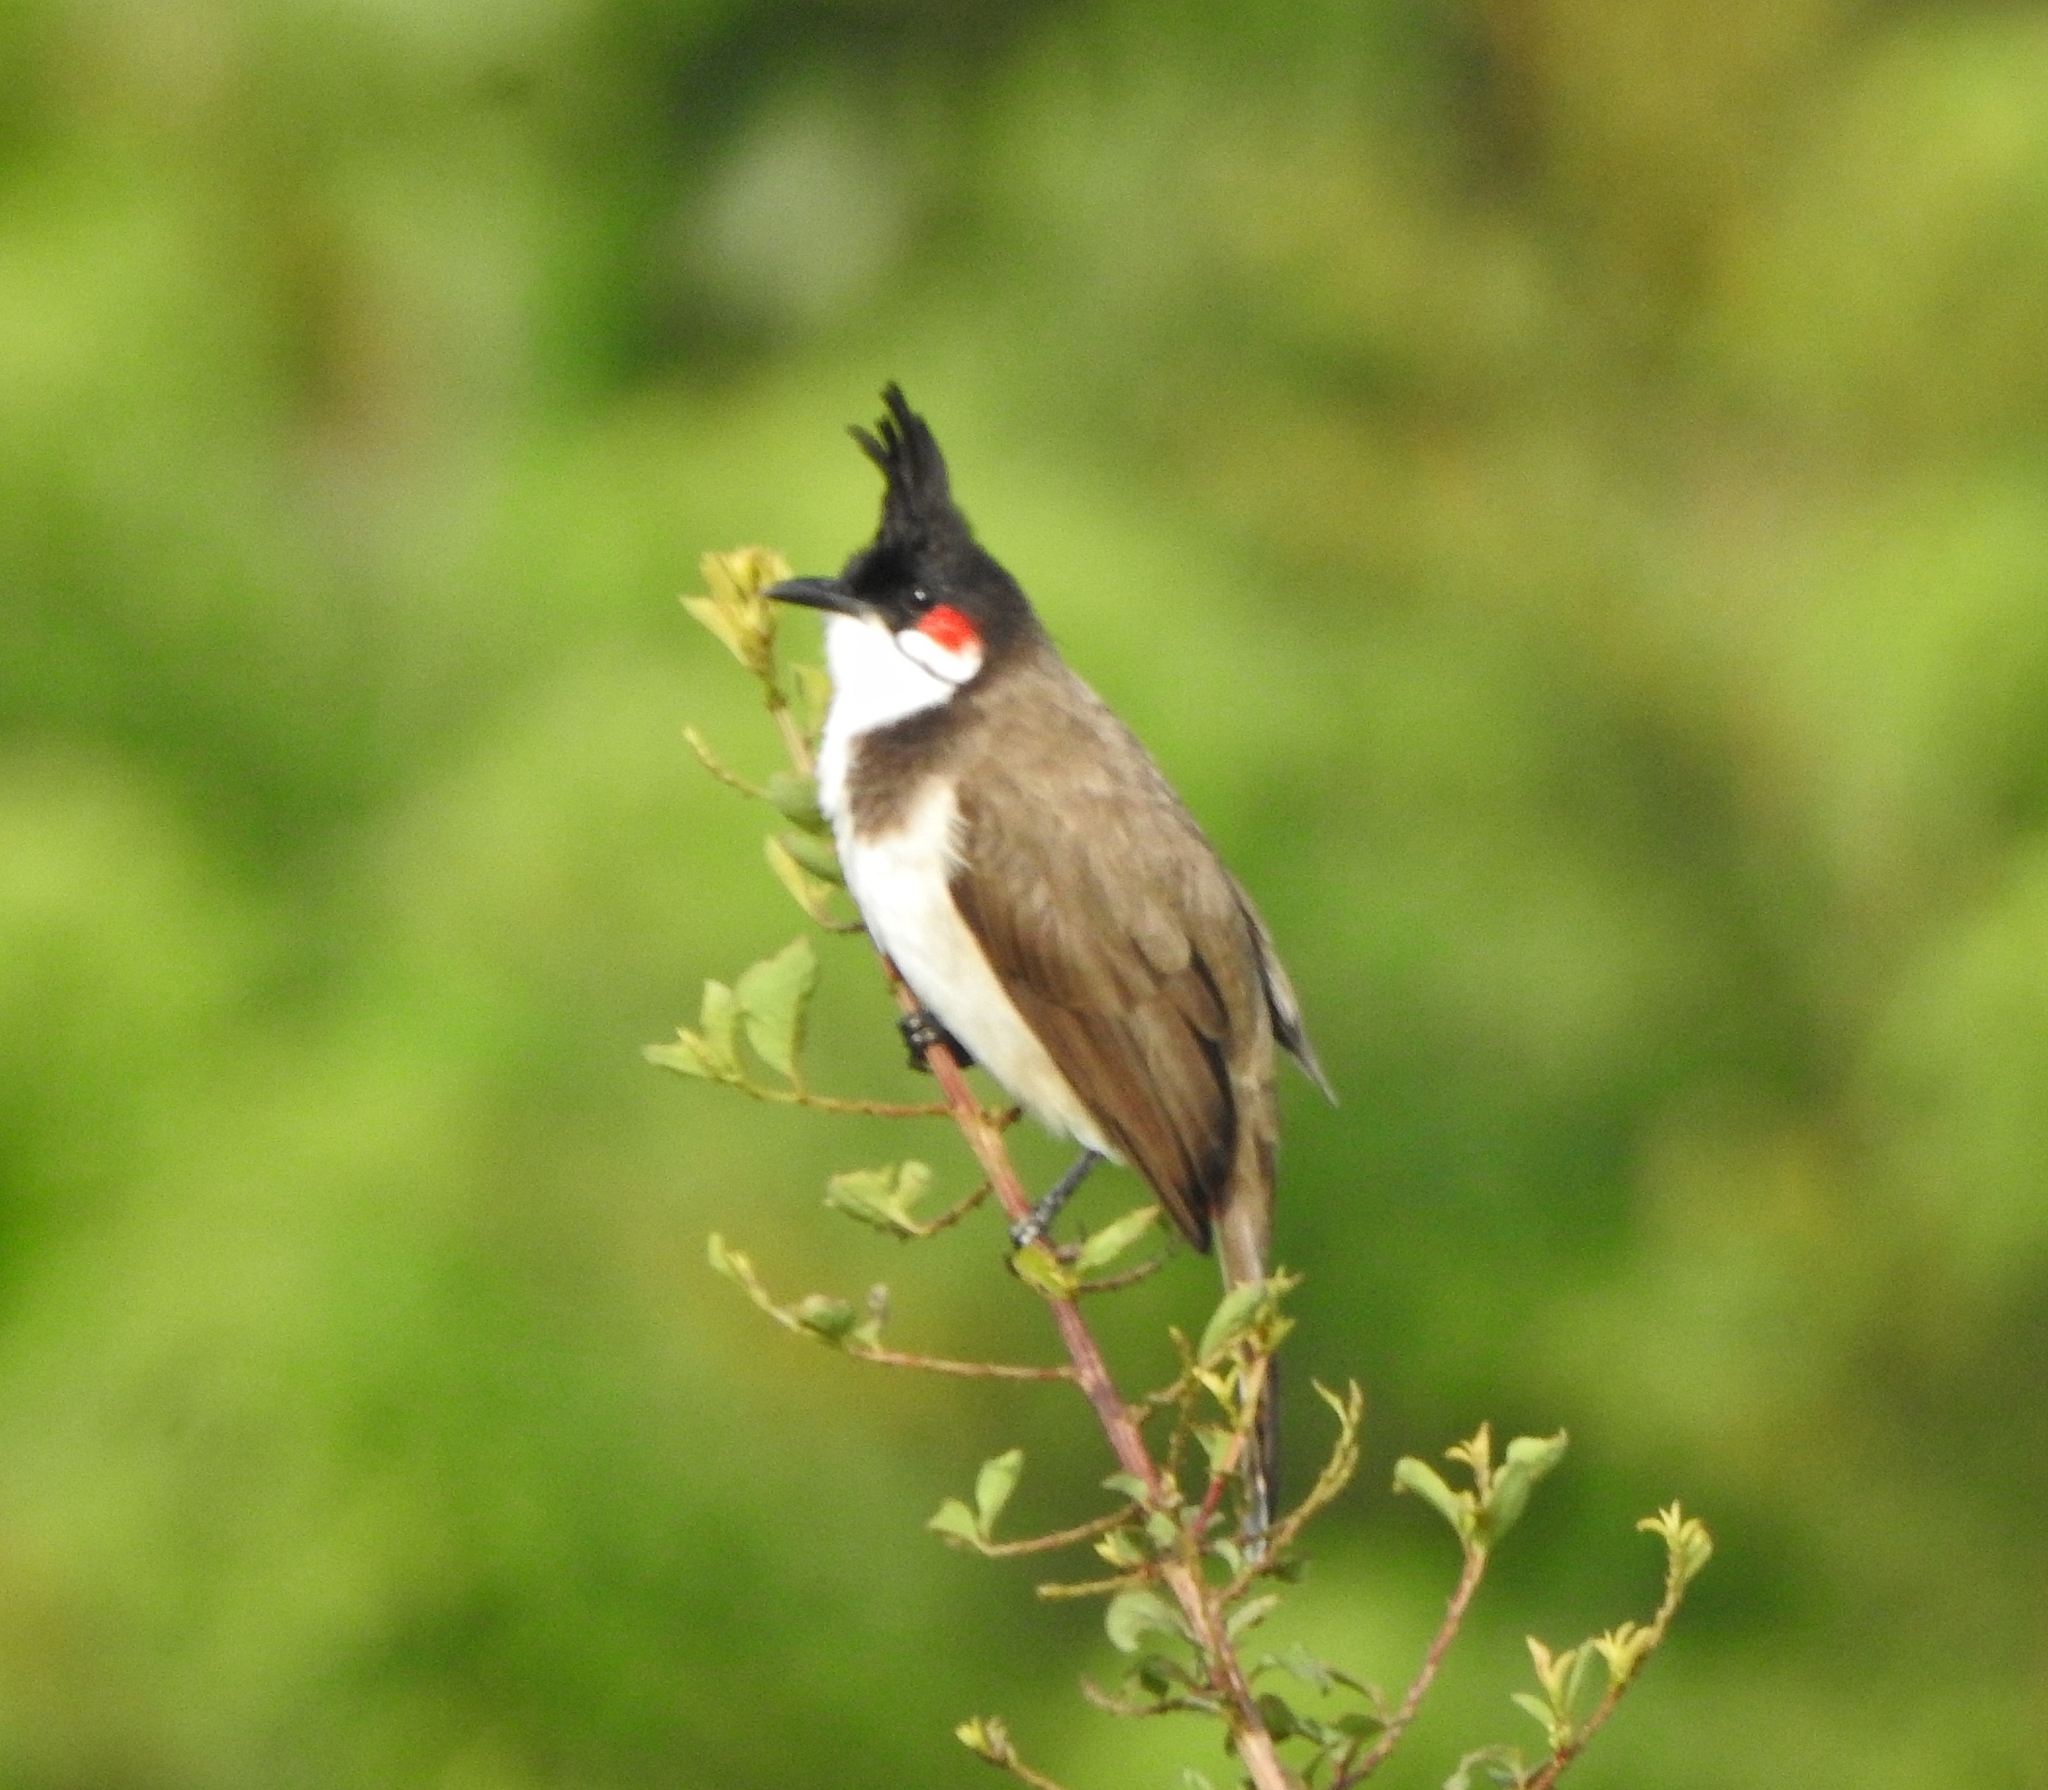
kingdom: Animalia
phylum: Chordata
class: Aves
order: Passeriformes
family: Pycnonotidae
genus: Pycnonotus
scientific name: Pycnonotus jocosus
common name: Red-whiskered bulbul
